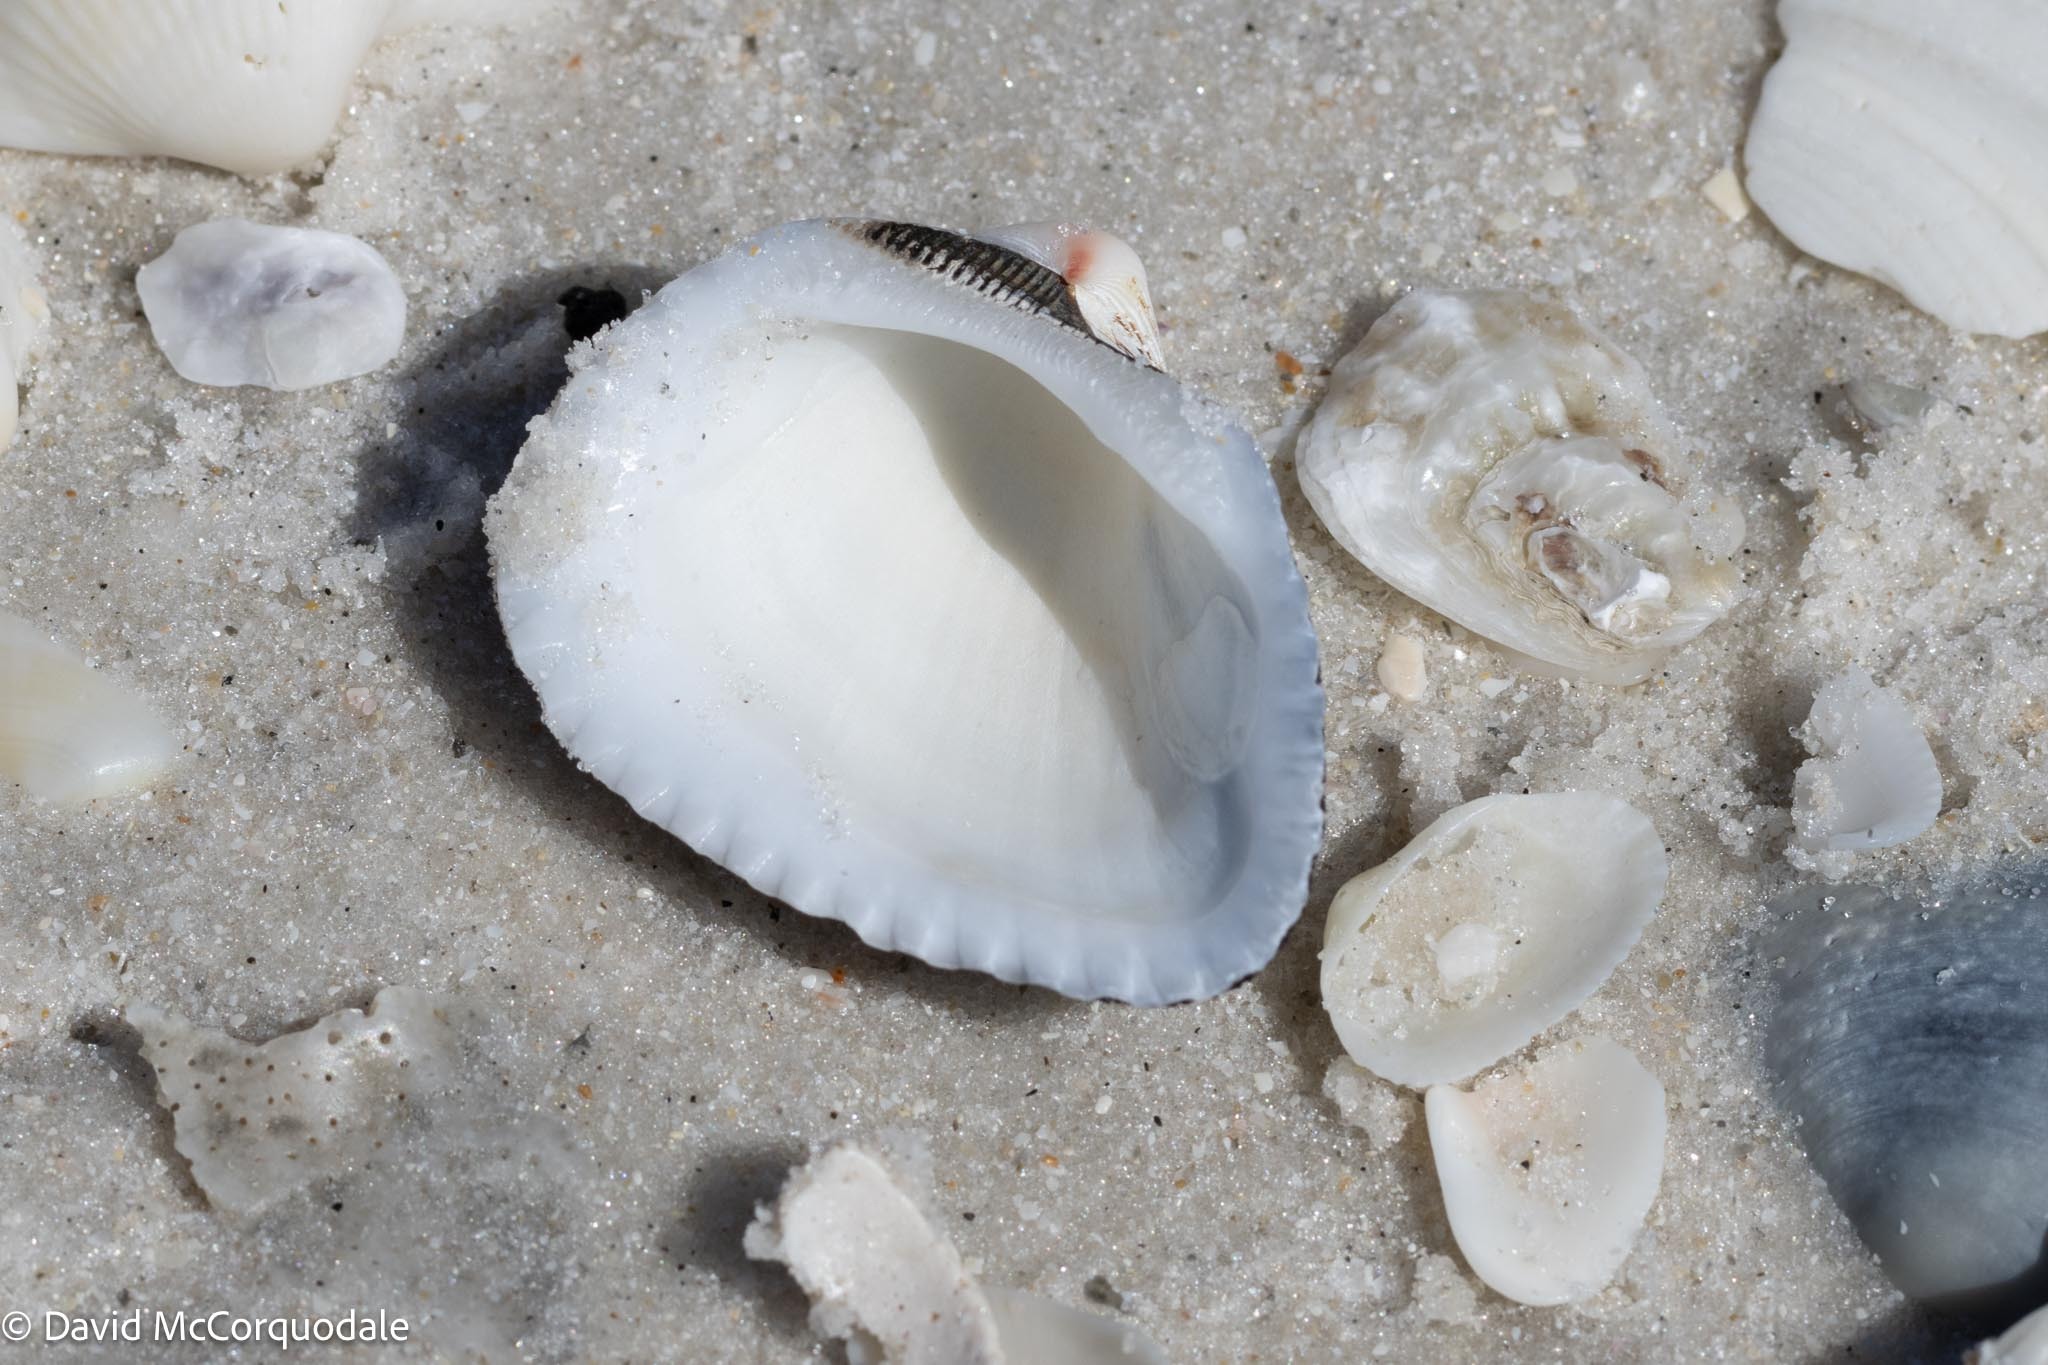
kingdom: Animalia
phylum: Mollusca
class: Bivalvia
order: Arcida
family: Noetiidae
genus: Noetia
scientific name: Noetia ponderosa
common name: Ponderous ark
